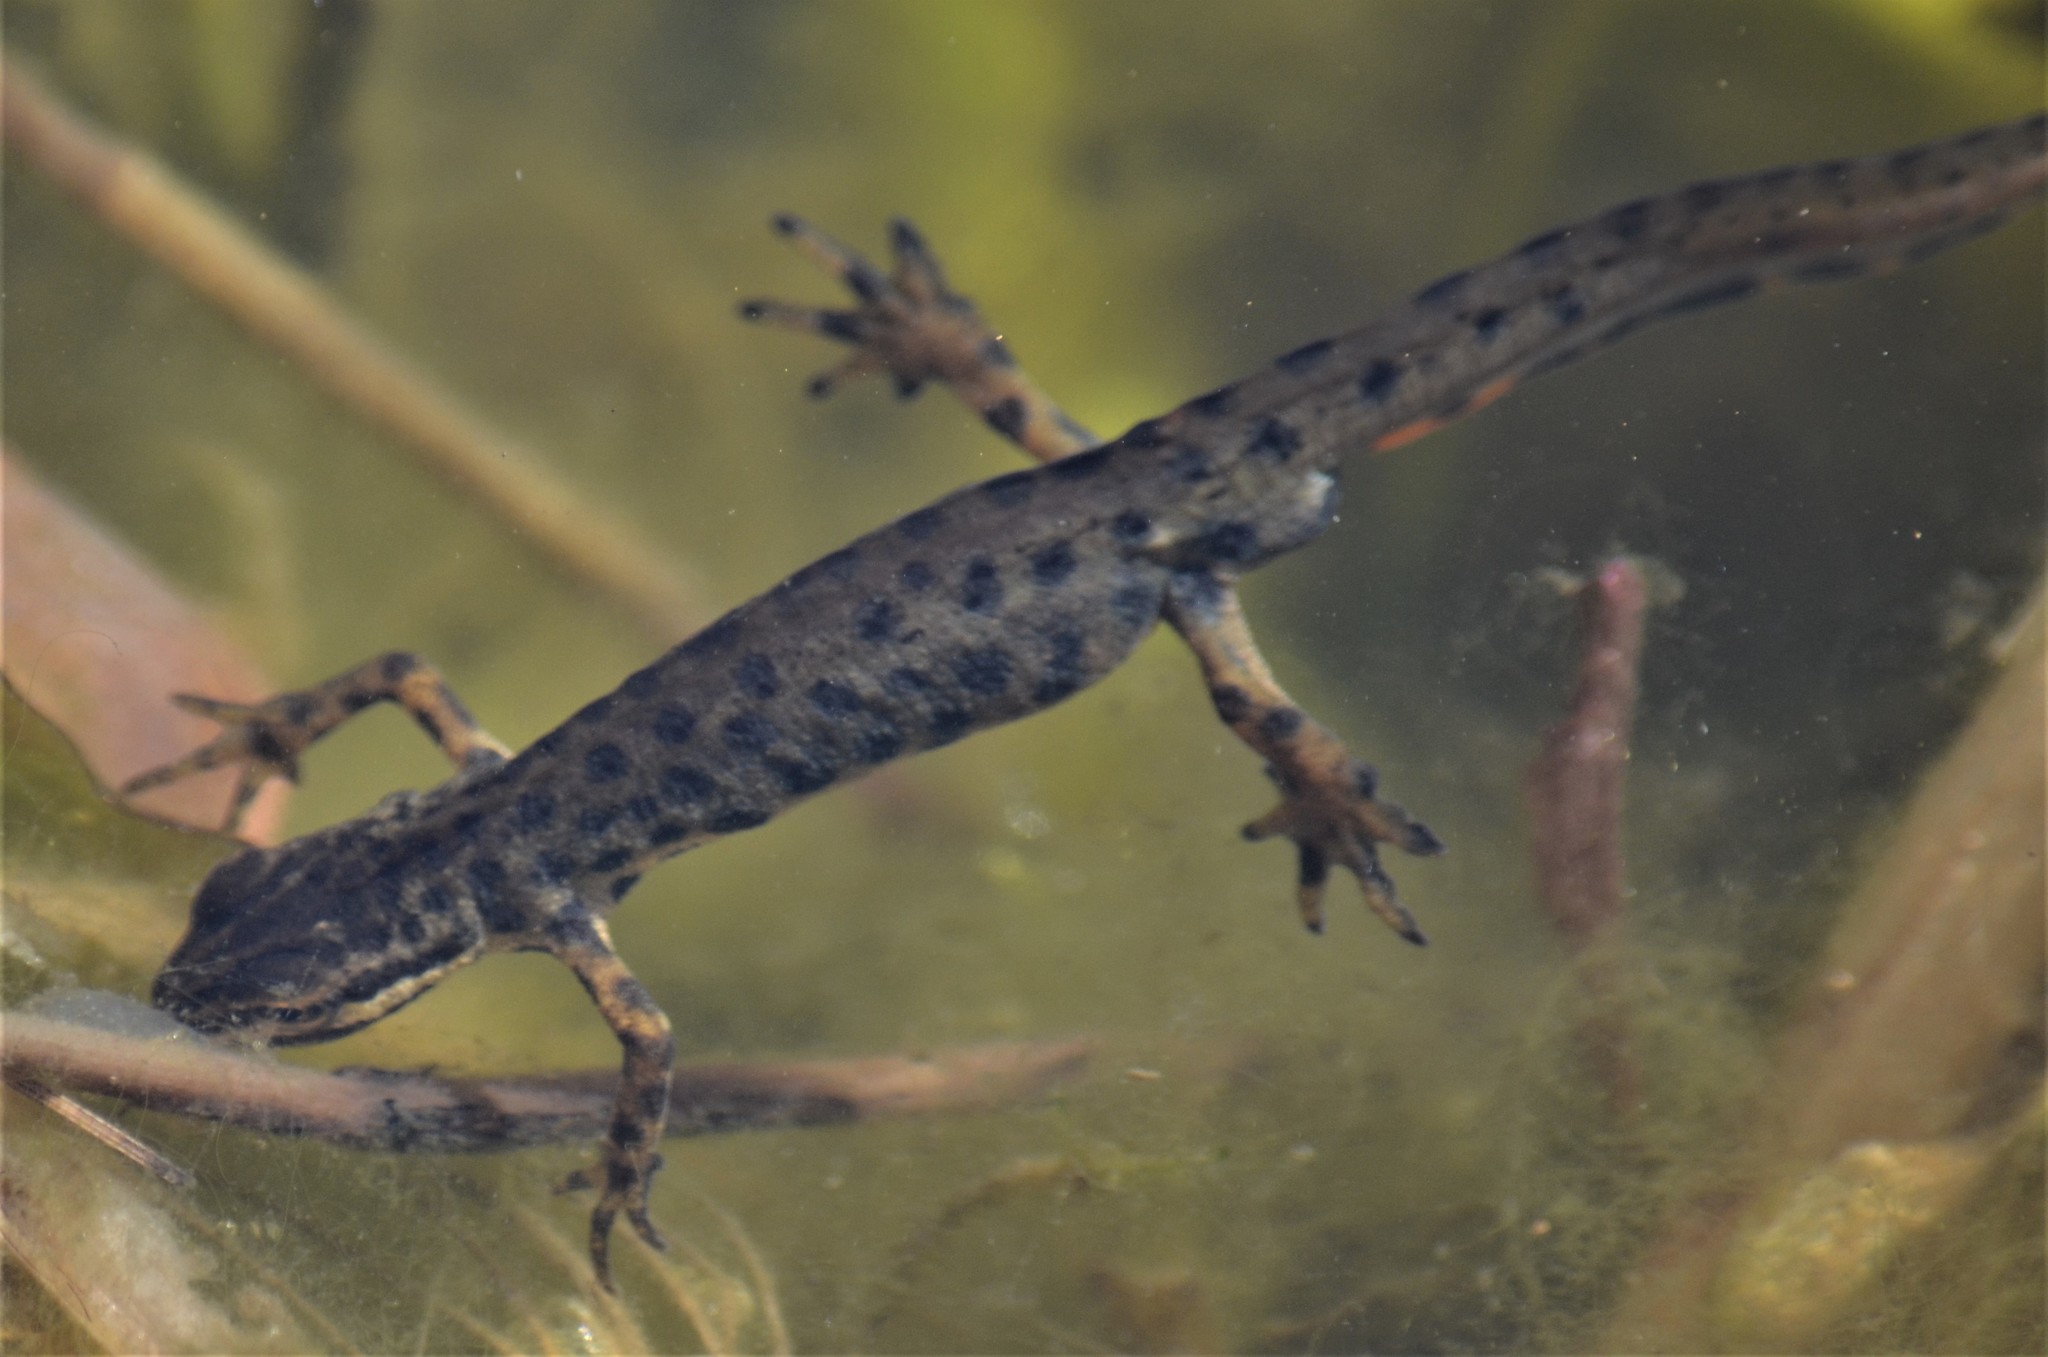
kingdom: Animalia
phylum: Chordata
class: Amphibia
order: Caudata
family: Salamandridae
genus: Lissotriton
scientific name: Lissotriton vulgaris
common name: Smooth newt
